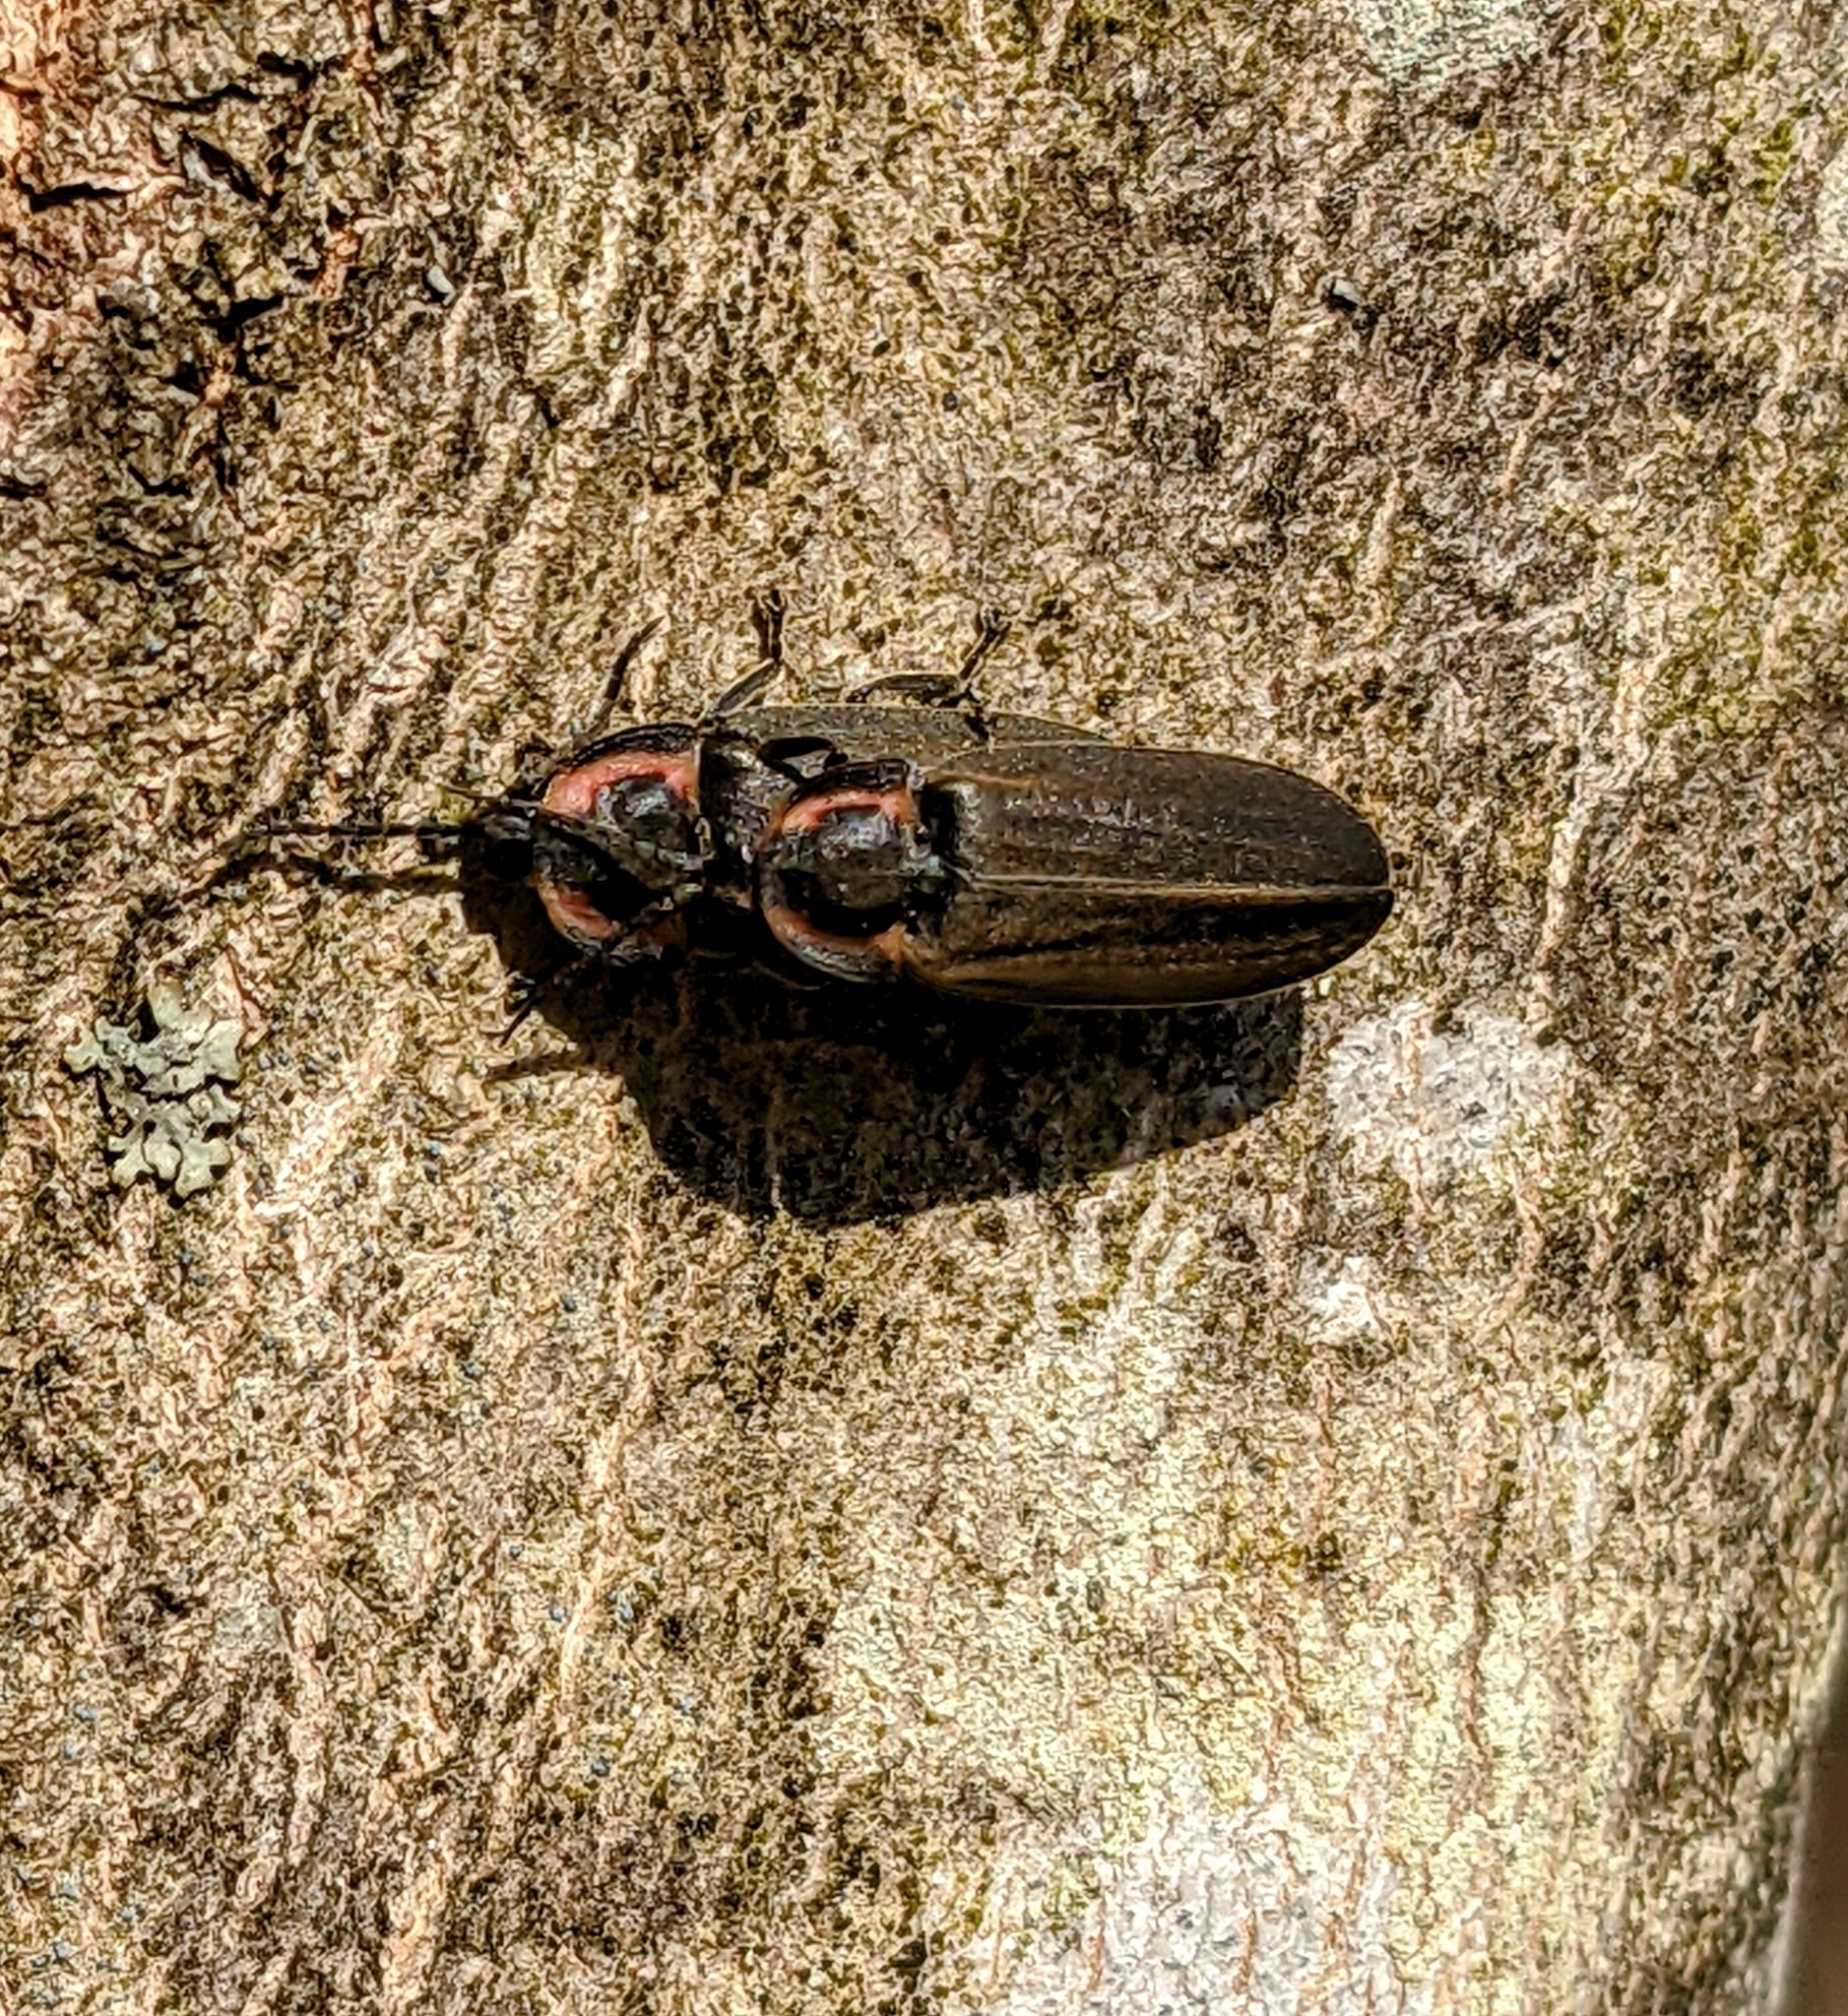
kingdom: Animalia
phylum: Arthropoda
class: Insecta
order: Coleoptera
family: Lampyridae
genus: Photinus
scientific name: Photinus corrusca
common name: Winter firefly
